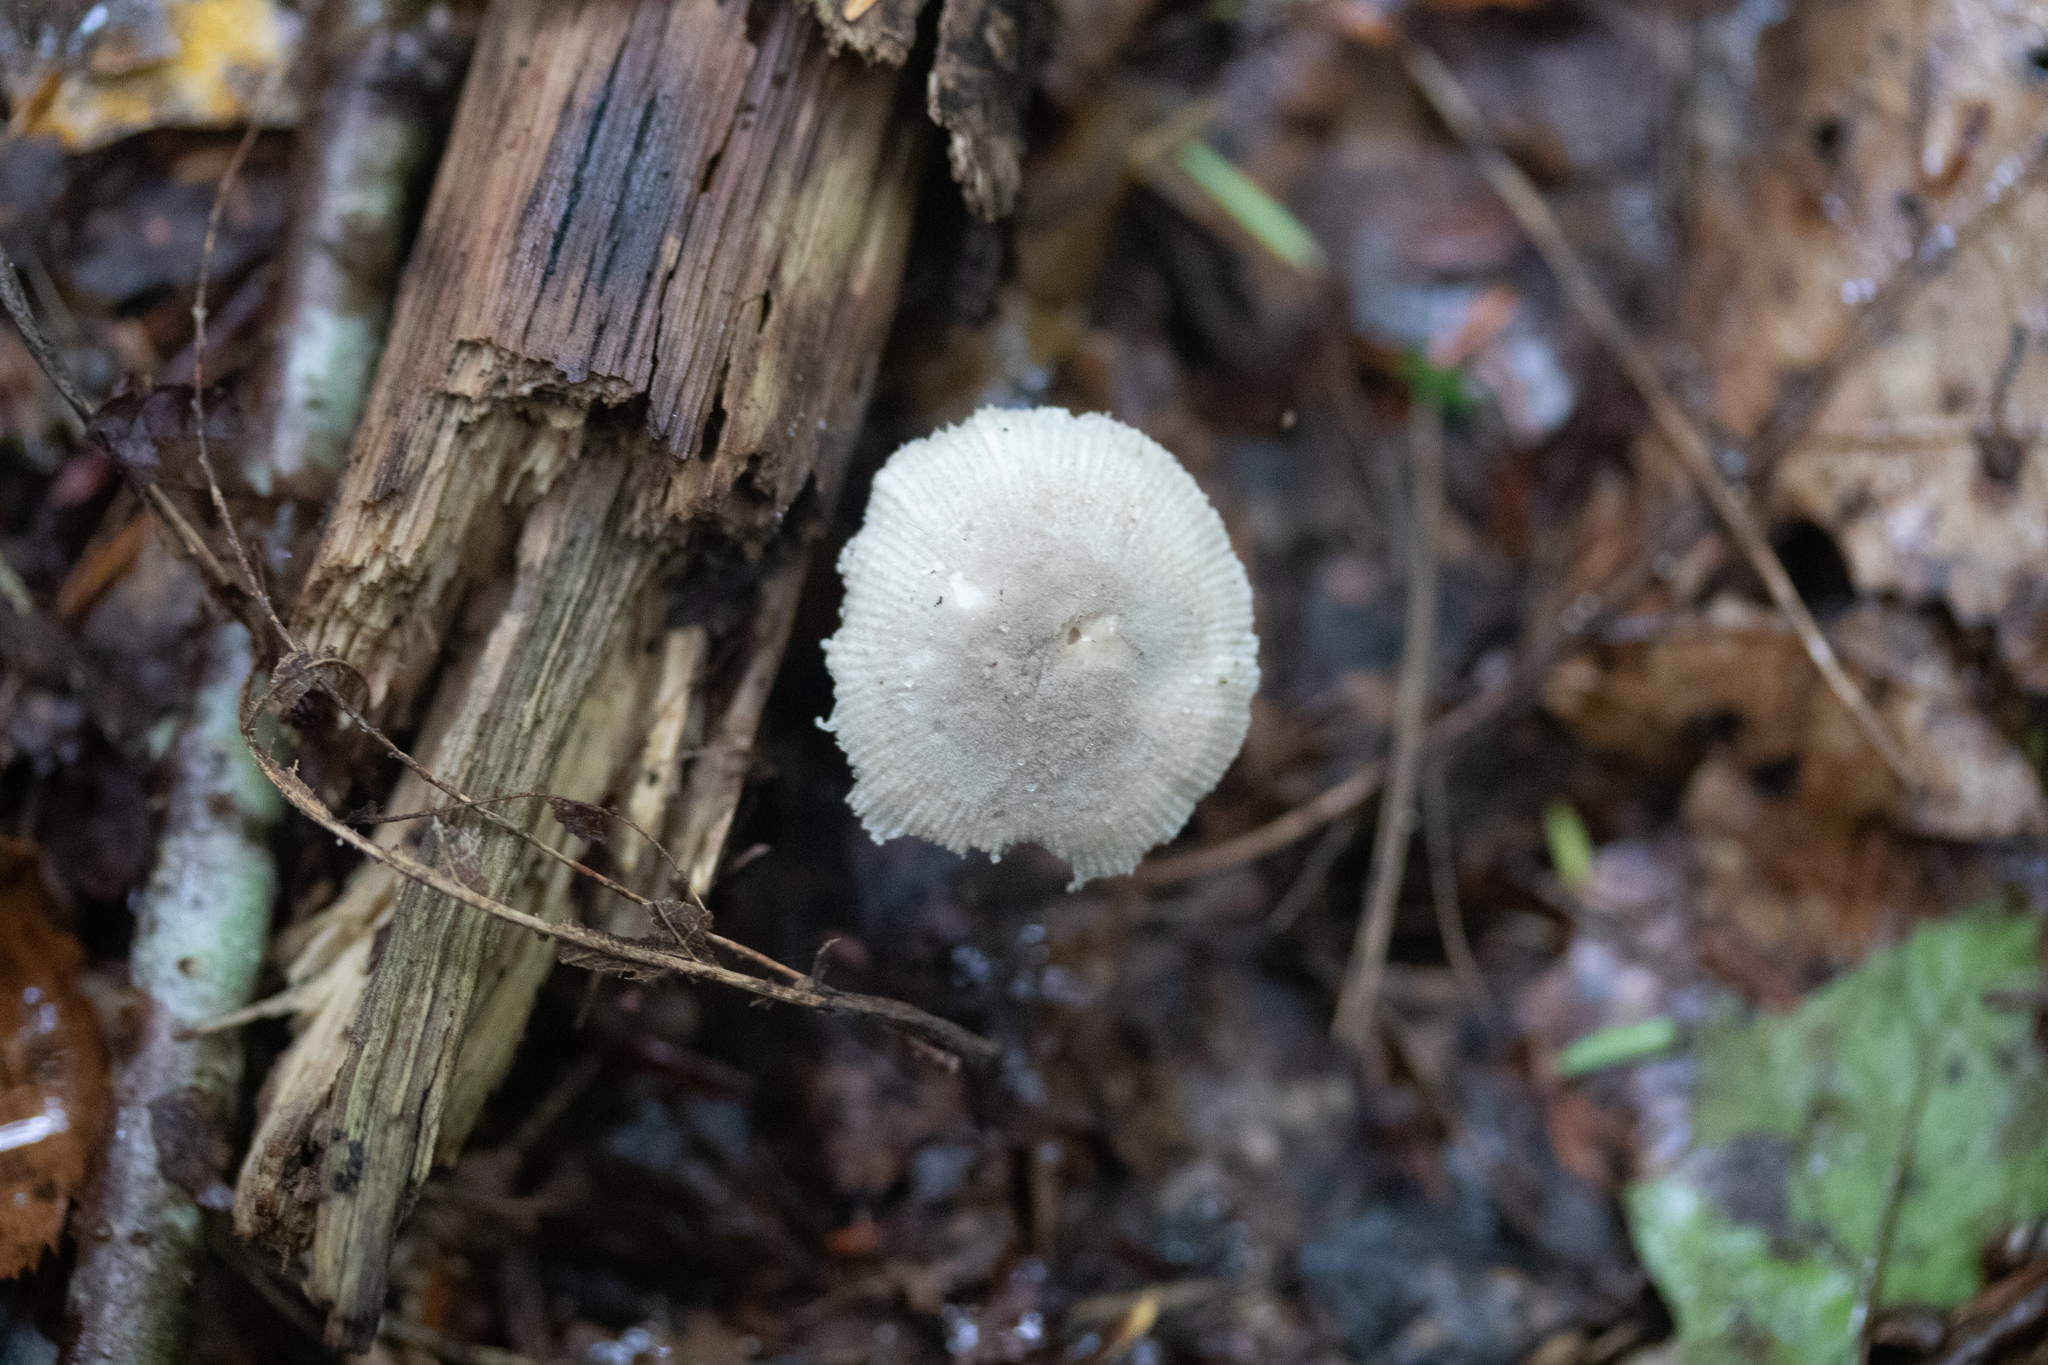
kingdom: Fungi
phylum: Basidiomycota
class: Agaricomycetes
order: Agaricales
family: Amanitaceae
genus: Amanita
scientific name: Amanita farinosa
